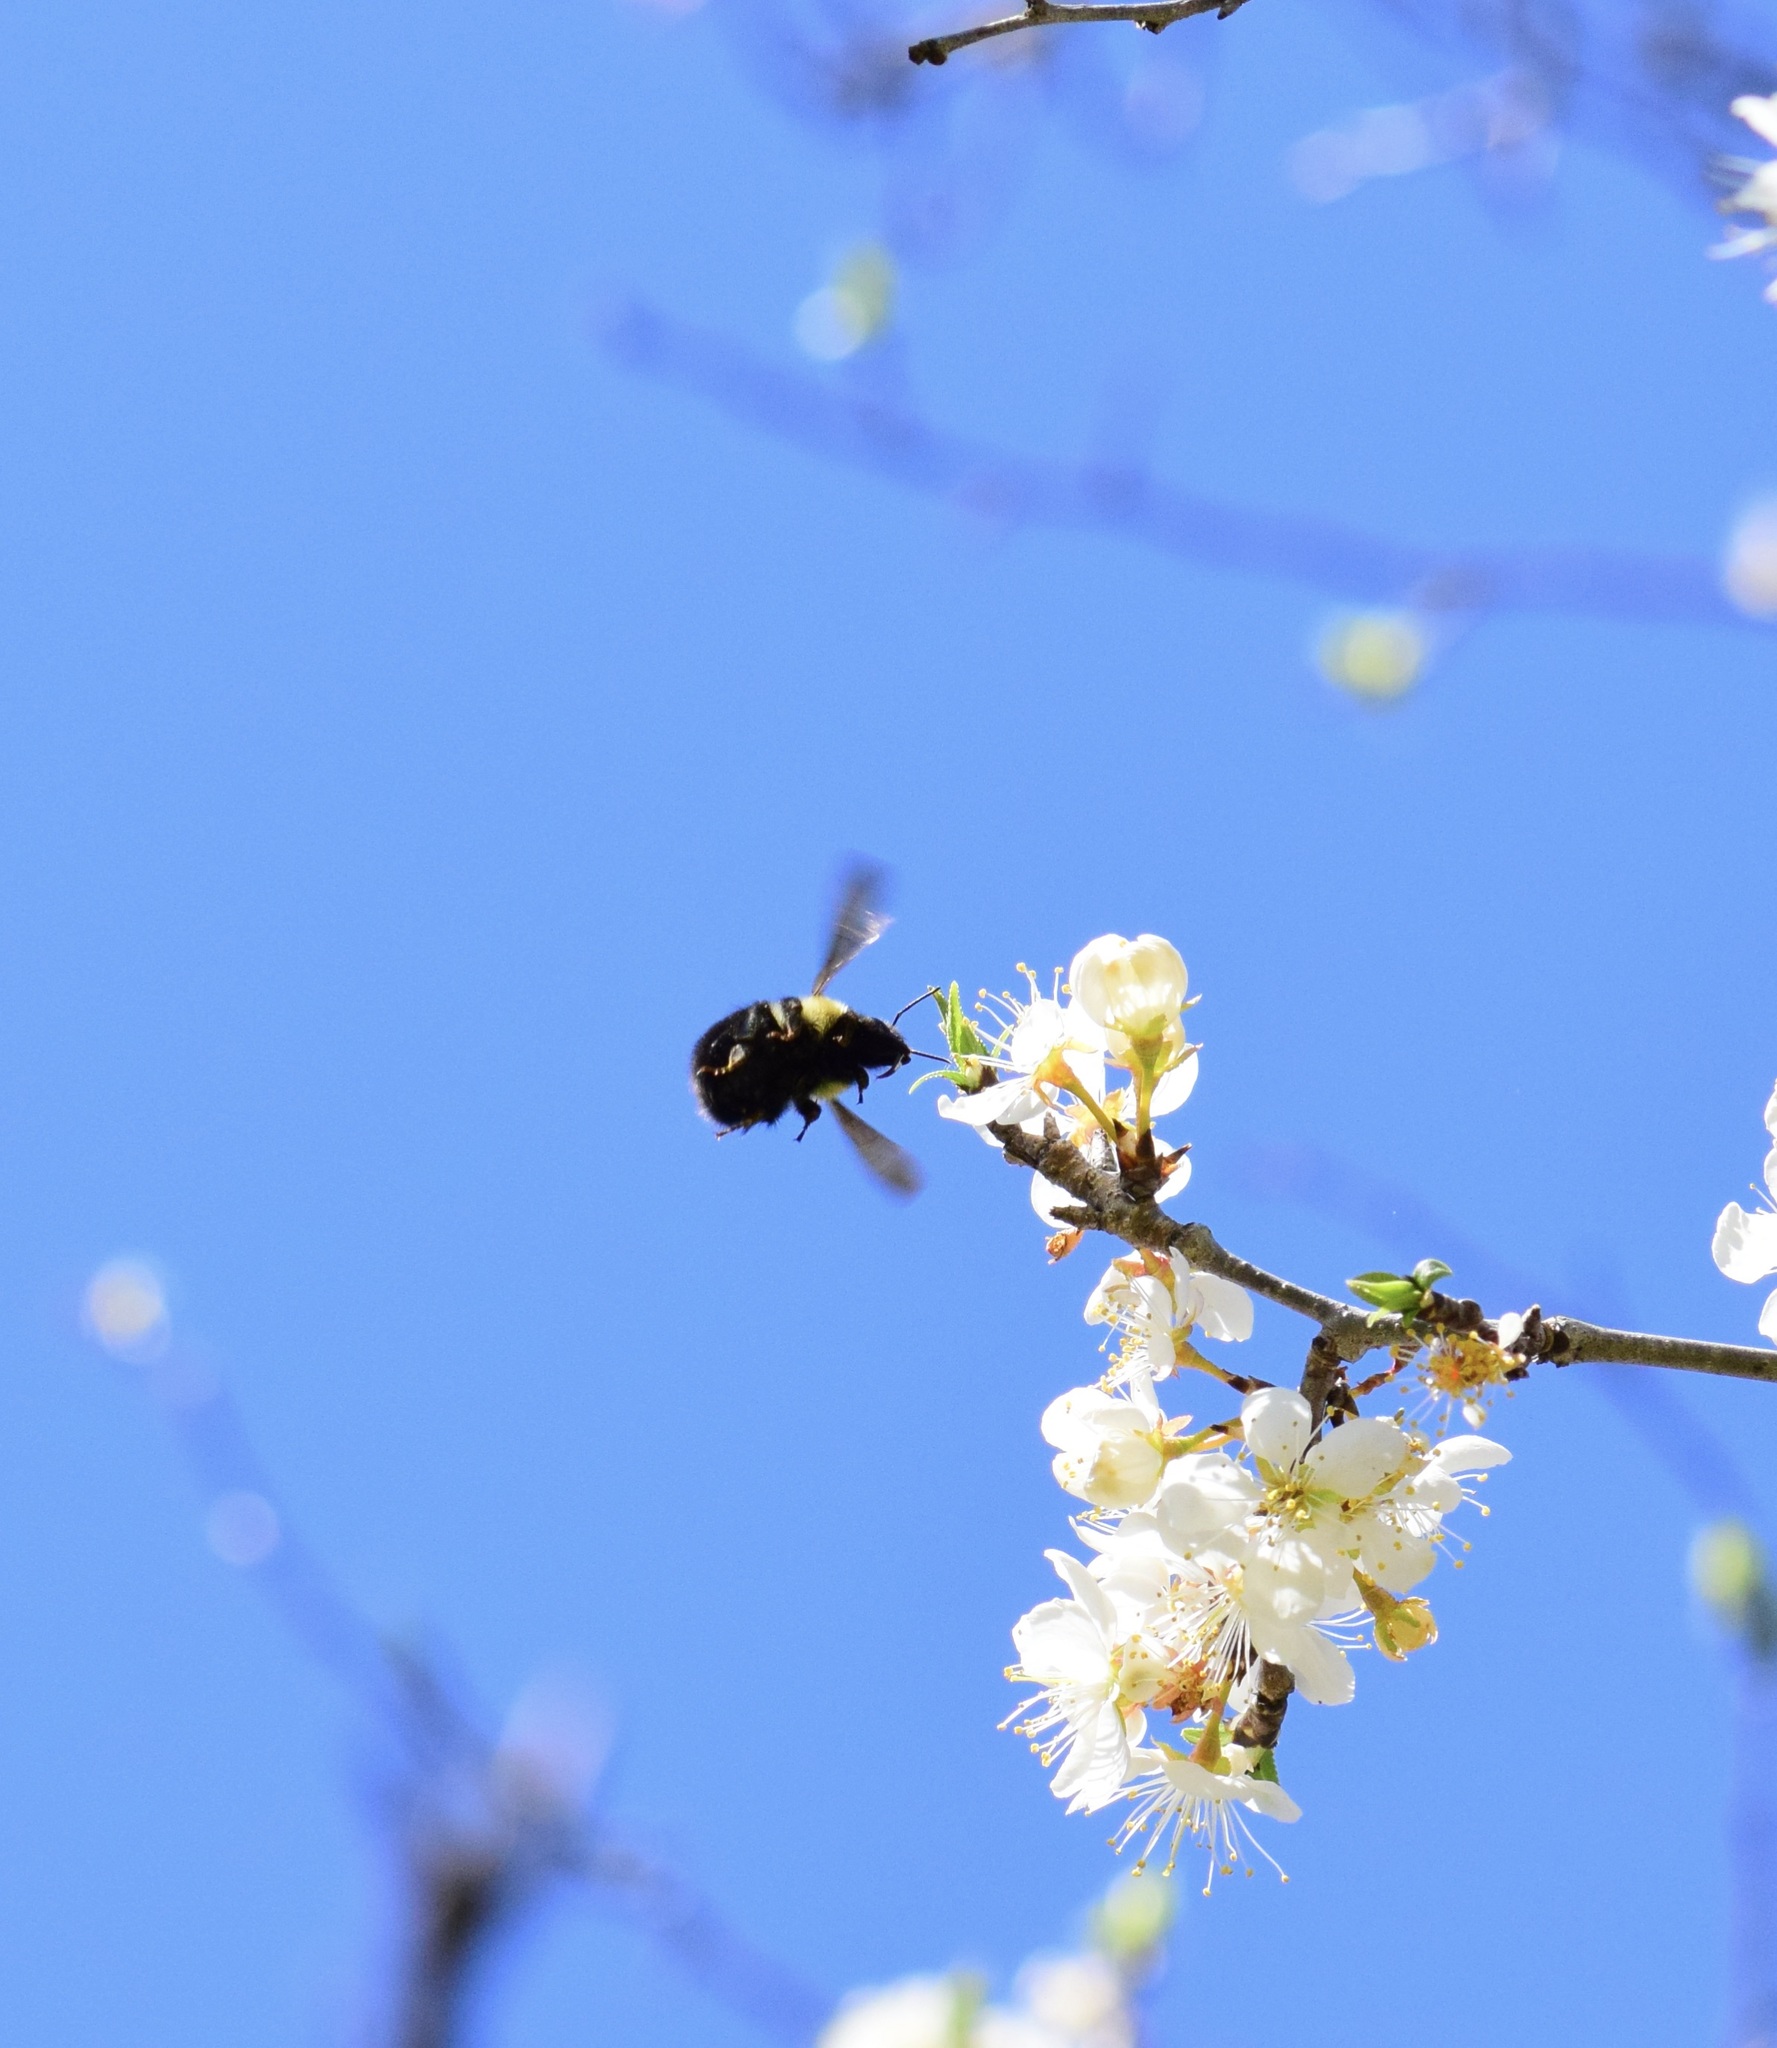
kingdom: Animalia
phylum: Arthropoda
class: Insecta
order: Hymenoptera
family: Apidae
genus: Bombus
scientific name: Bombus bimaculatus
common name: Two-spotted bumble bee
